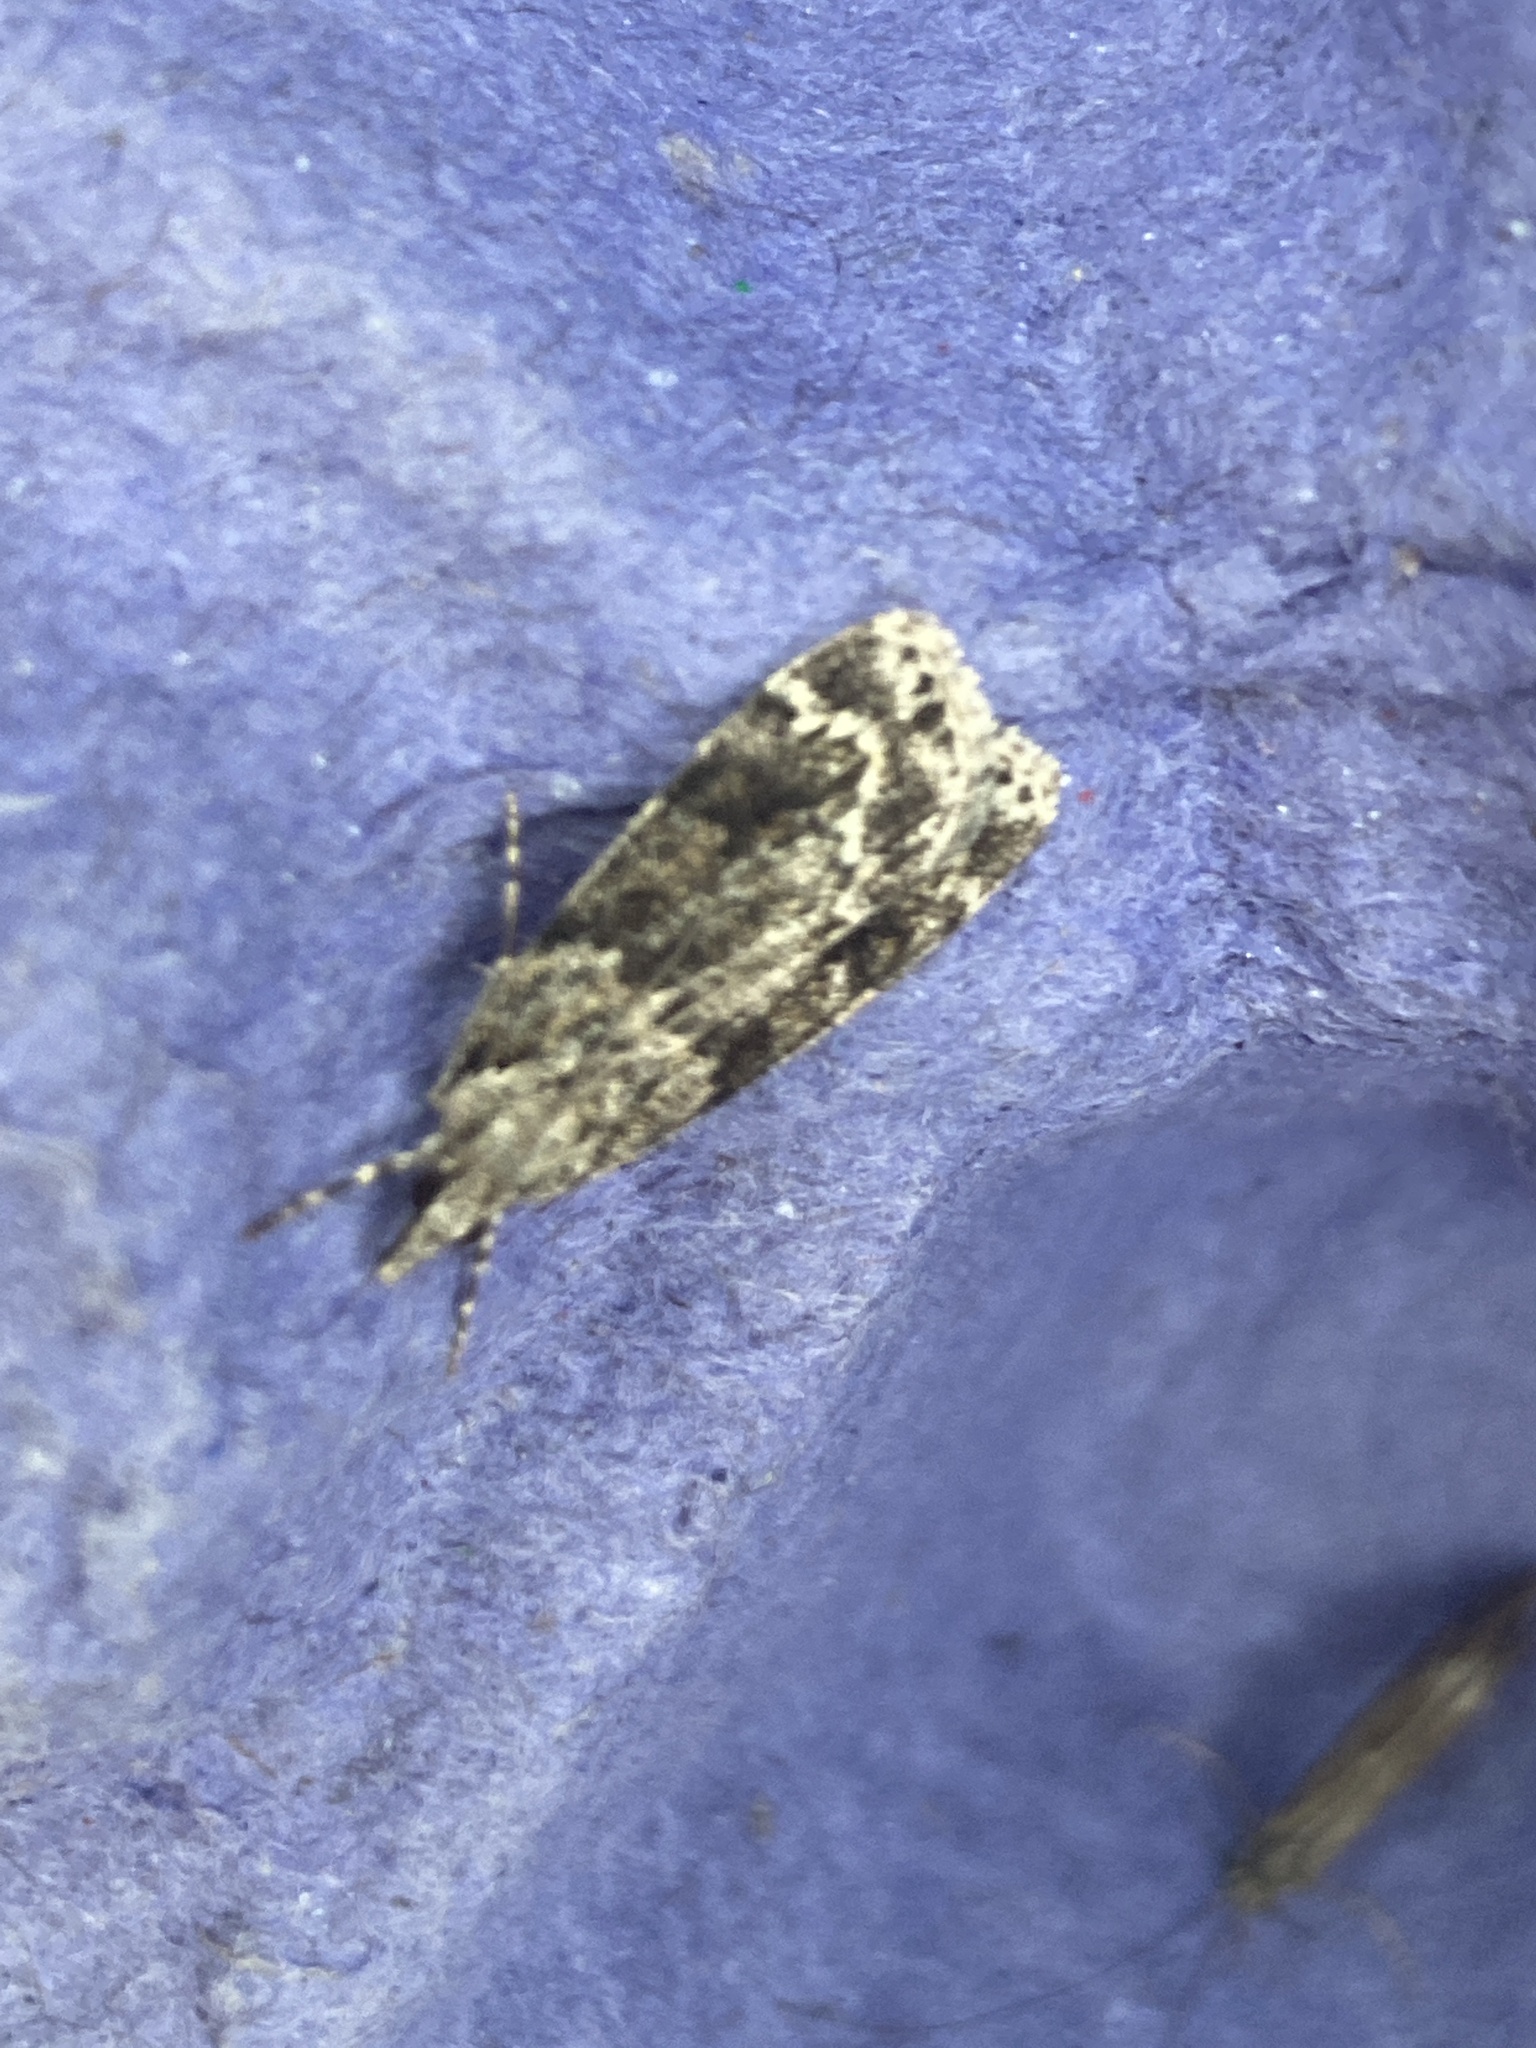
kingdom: Animalia
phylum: Arthropoda
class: Insecta
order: Lepidoptera
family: Crambidae
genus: Eudonia
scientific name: Eudonia mercurella
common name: Small grey
